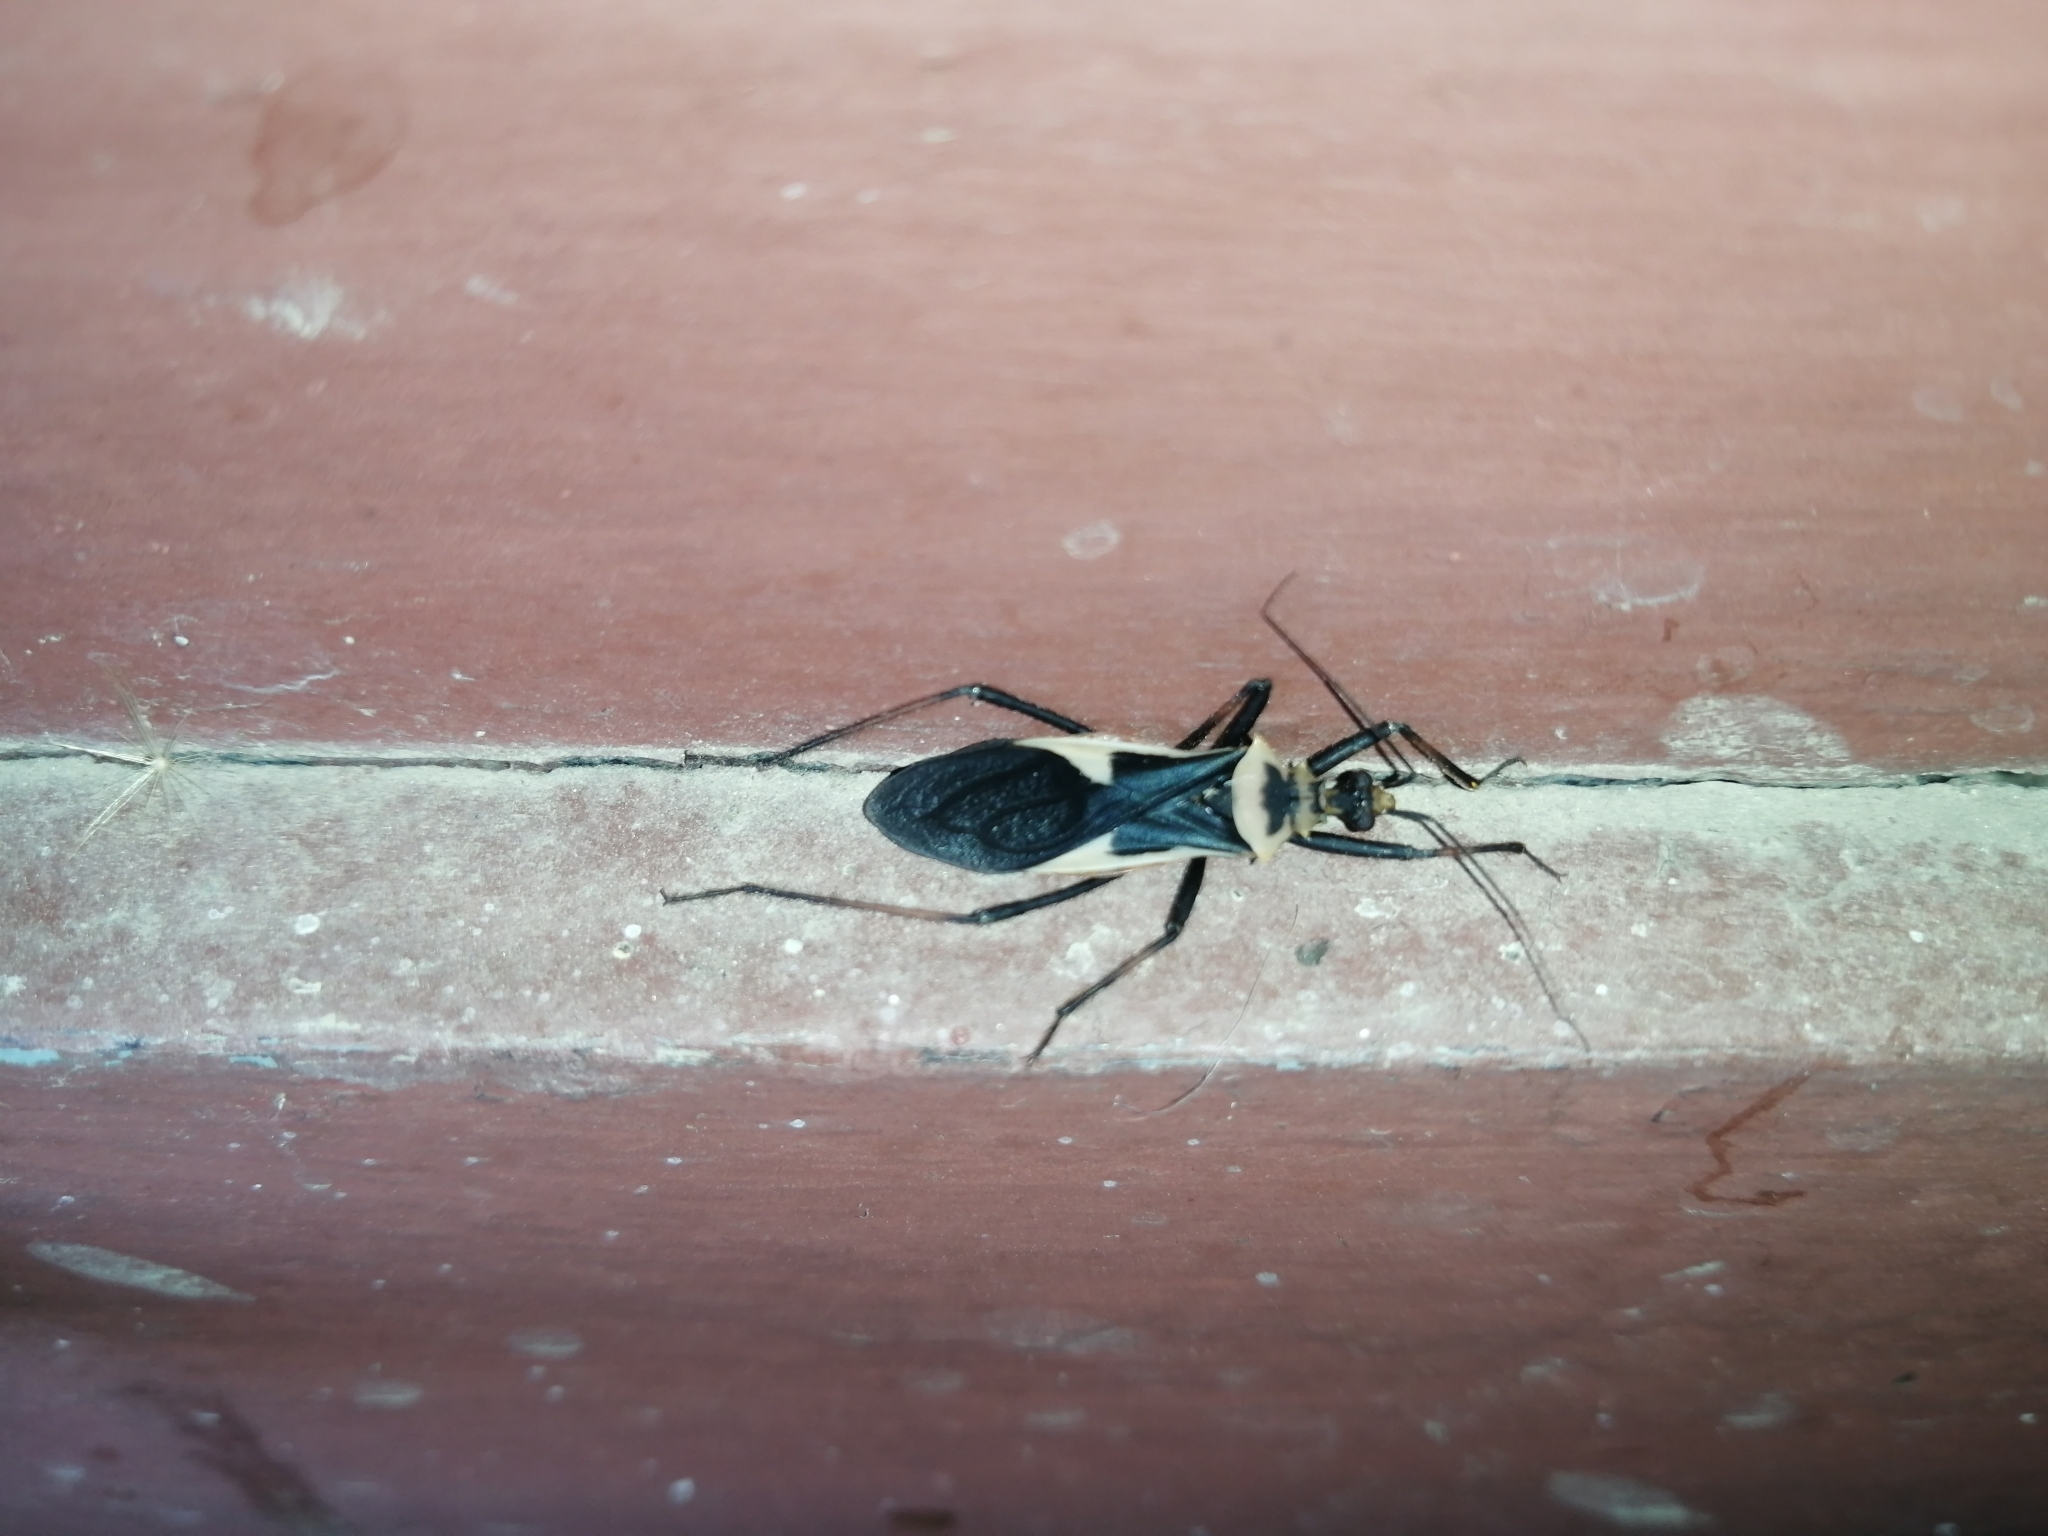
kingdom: Animalia
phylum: Arthropoda
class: Insecta
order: Hemiptera
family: Reduviidae
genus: Zelurus
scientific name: Zelurus circumcinctus
